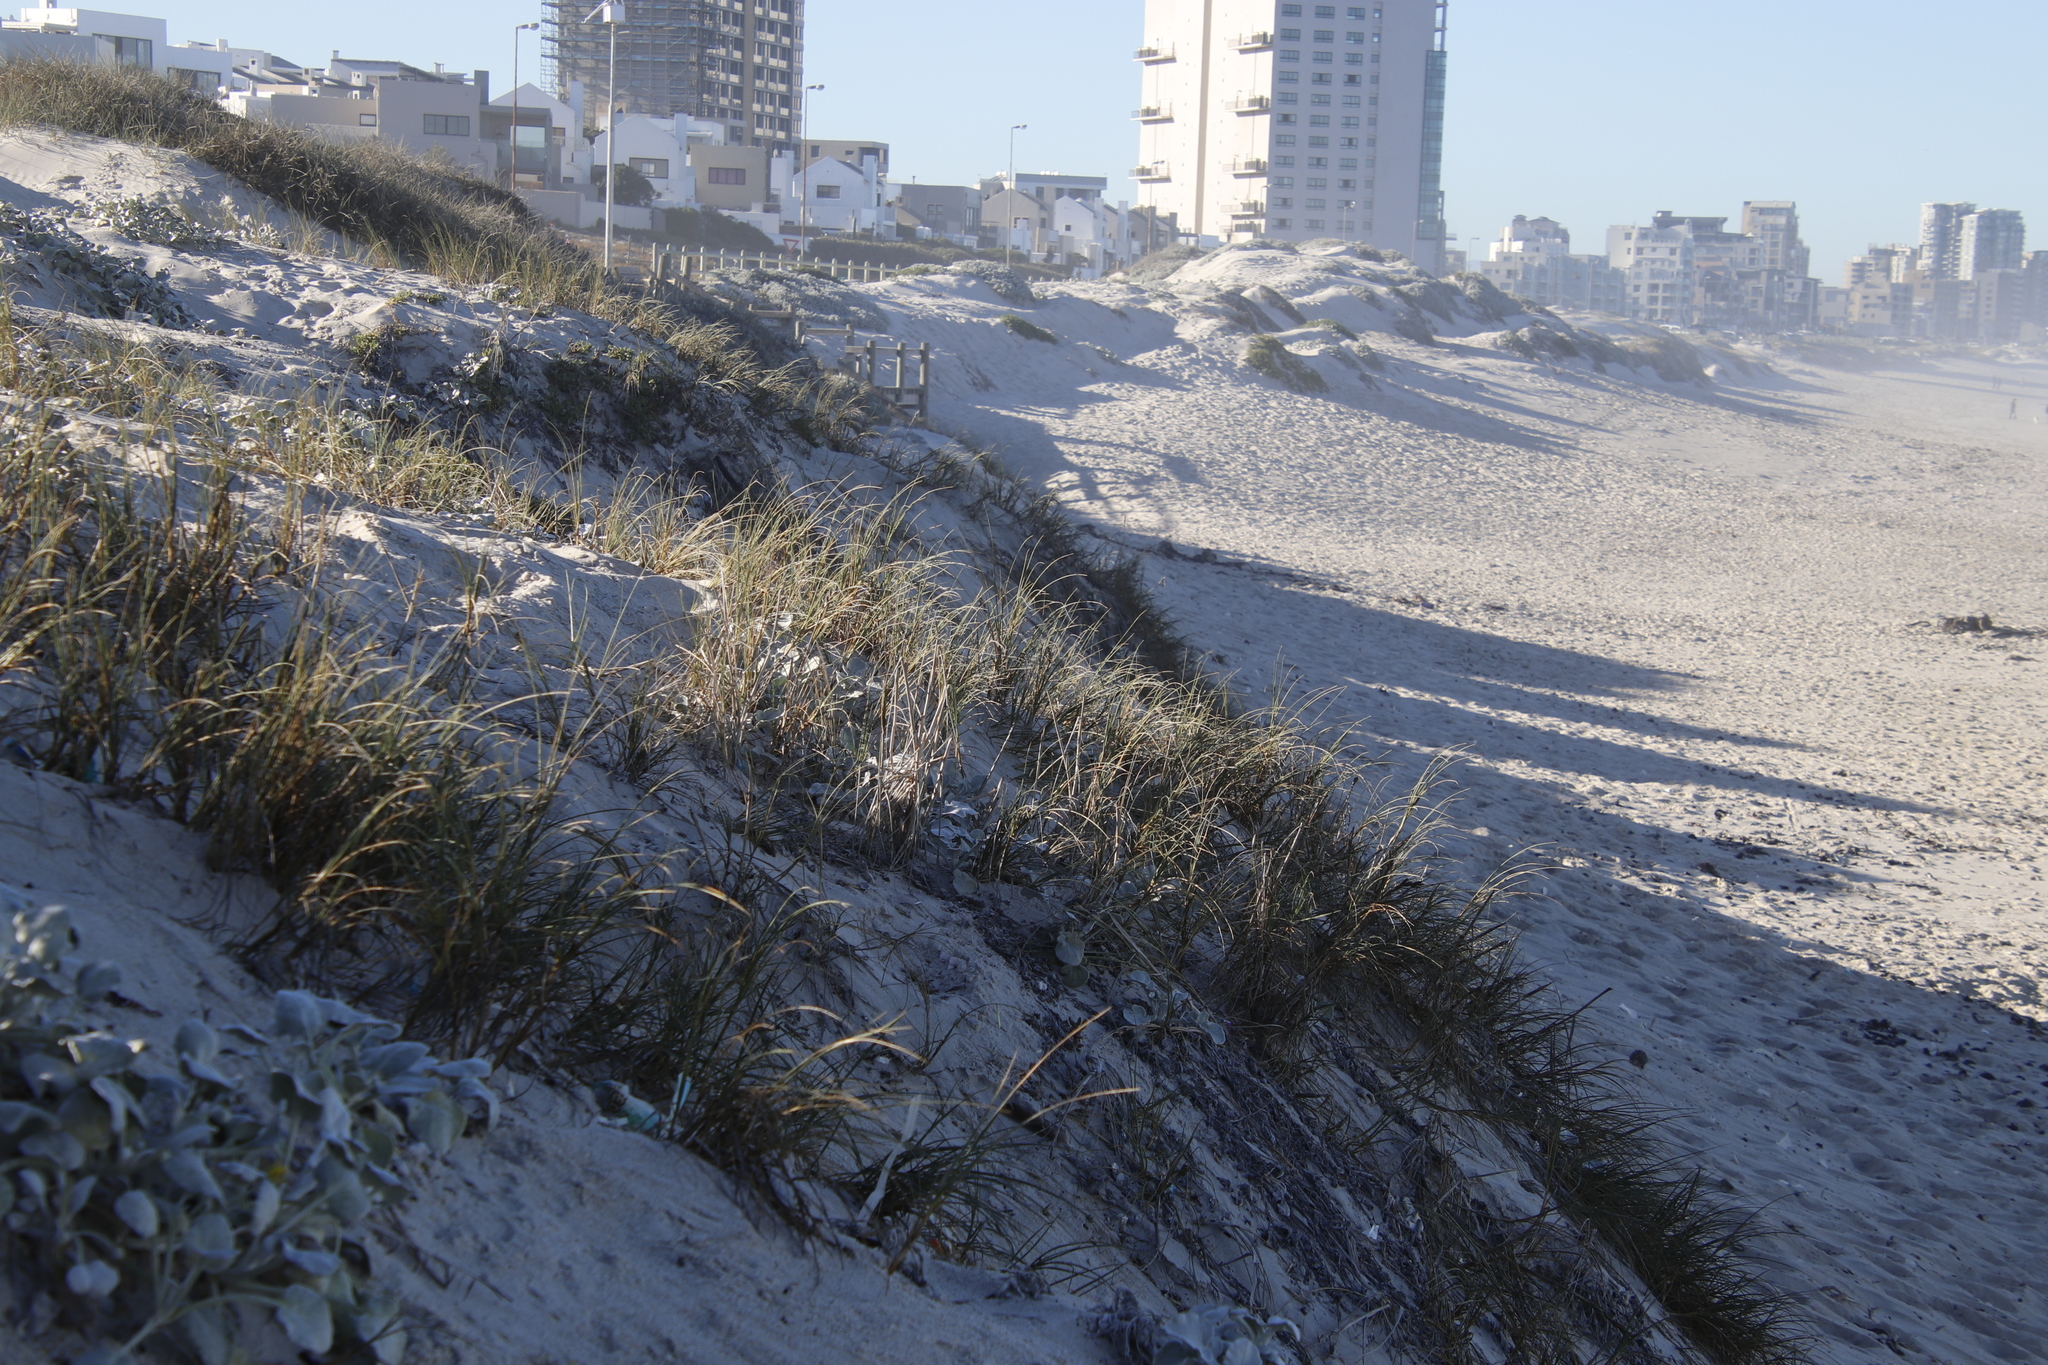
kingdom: Plantae
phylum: Tracheophyta
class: Liliopsida
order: Poales
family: Poaceae
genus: Ehrharta
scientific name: Ehrharta villosa
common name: Pyp grass
